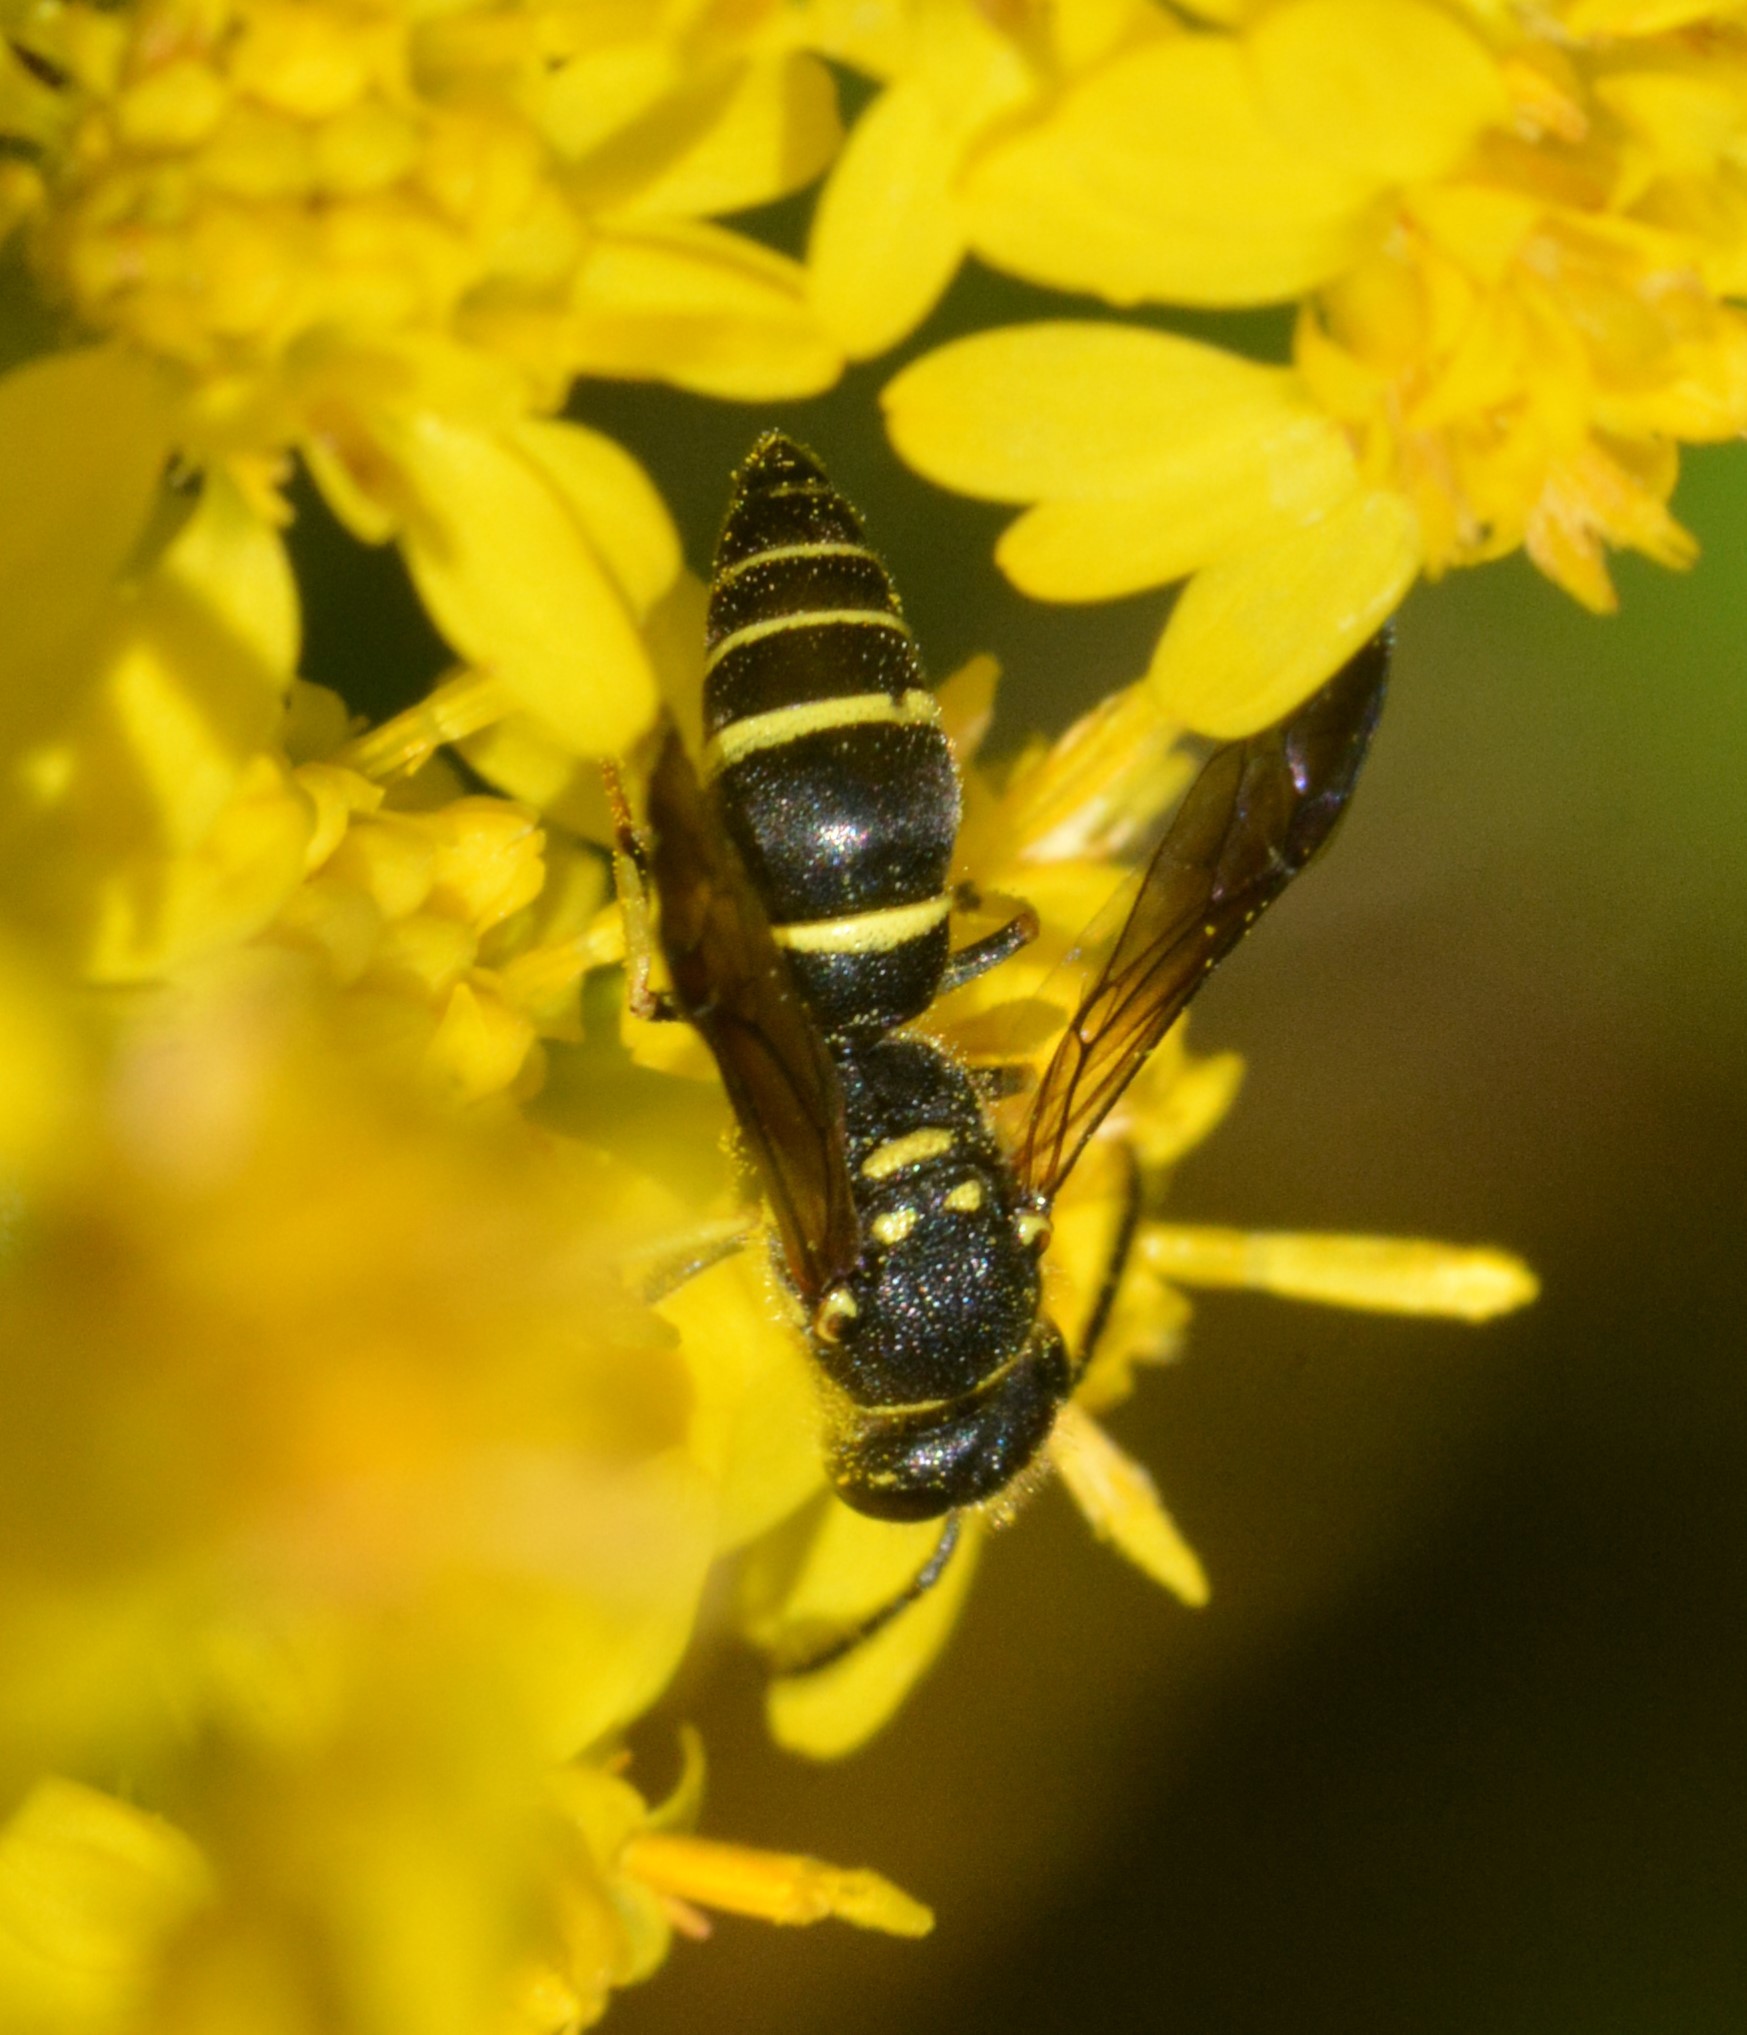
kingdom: Animalia
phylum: Arthropoda
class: Insecta
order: Hymenoptera
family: Vespidae
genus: Ancistrocerus
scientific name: Ancistrocerus adiabatus
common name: Bramble mason wasp
